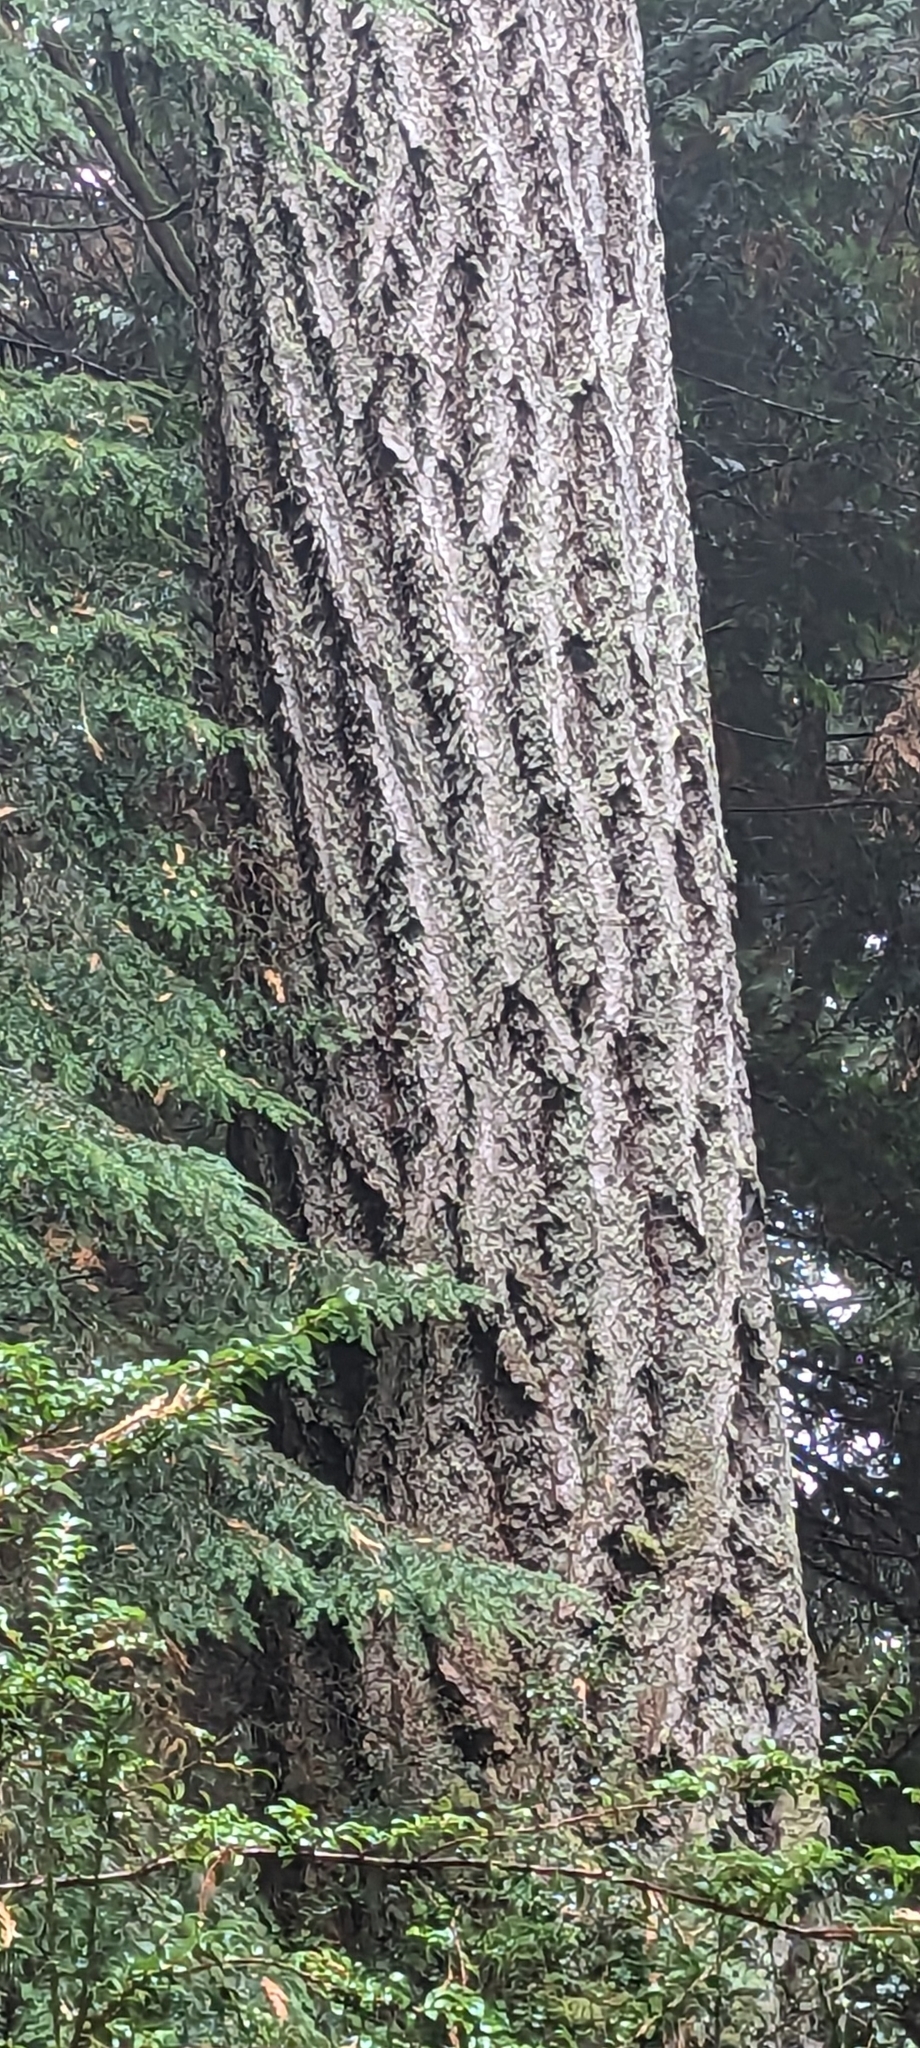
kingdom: Plantae
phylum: Tracheophyta
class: Pinopsida
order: Pinales
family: Pinaceae
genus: Pseudotsuga
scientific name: Pseudotsuga menziesii
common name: Douglas fir
